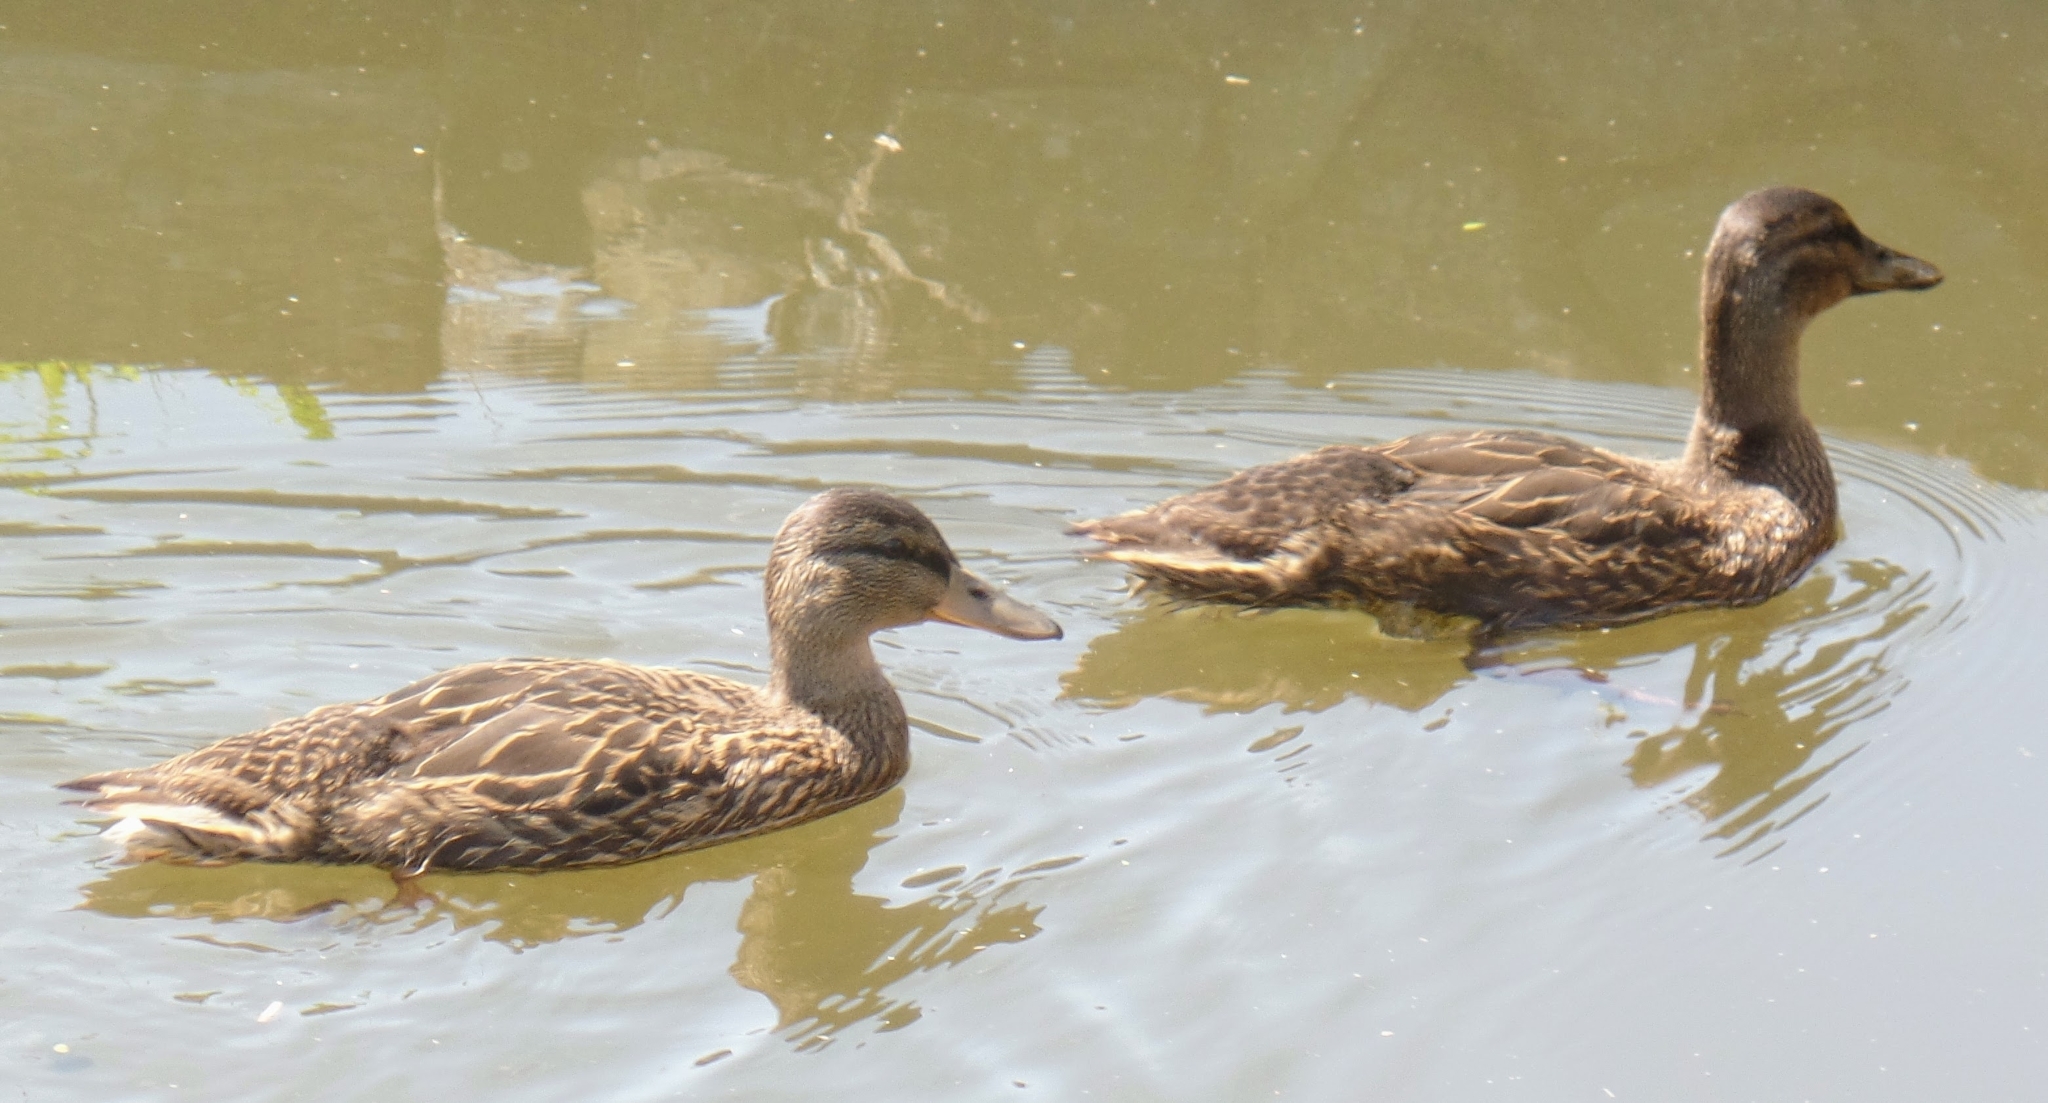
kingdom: Animalia
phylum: Chordata
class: Aves
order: Anseriformes
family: Anatidae
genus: Anas
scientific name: Anas platyrhynchos
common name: Mallard
